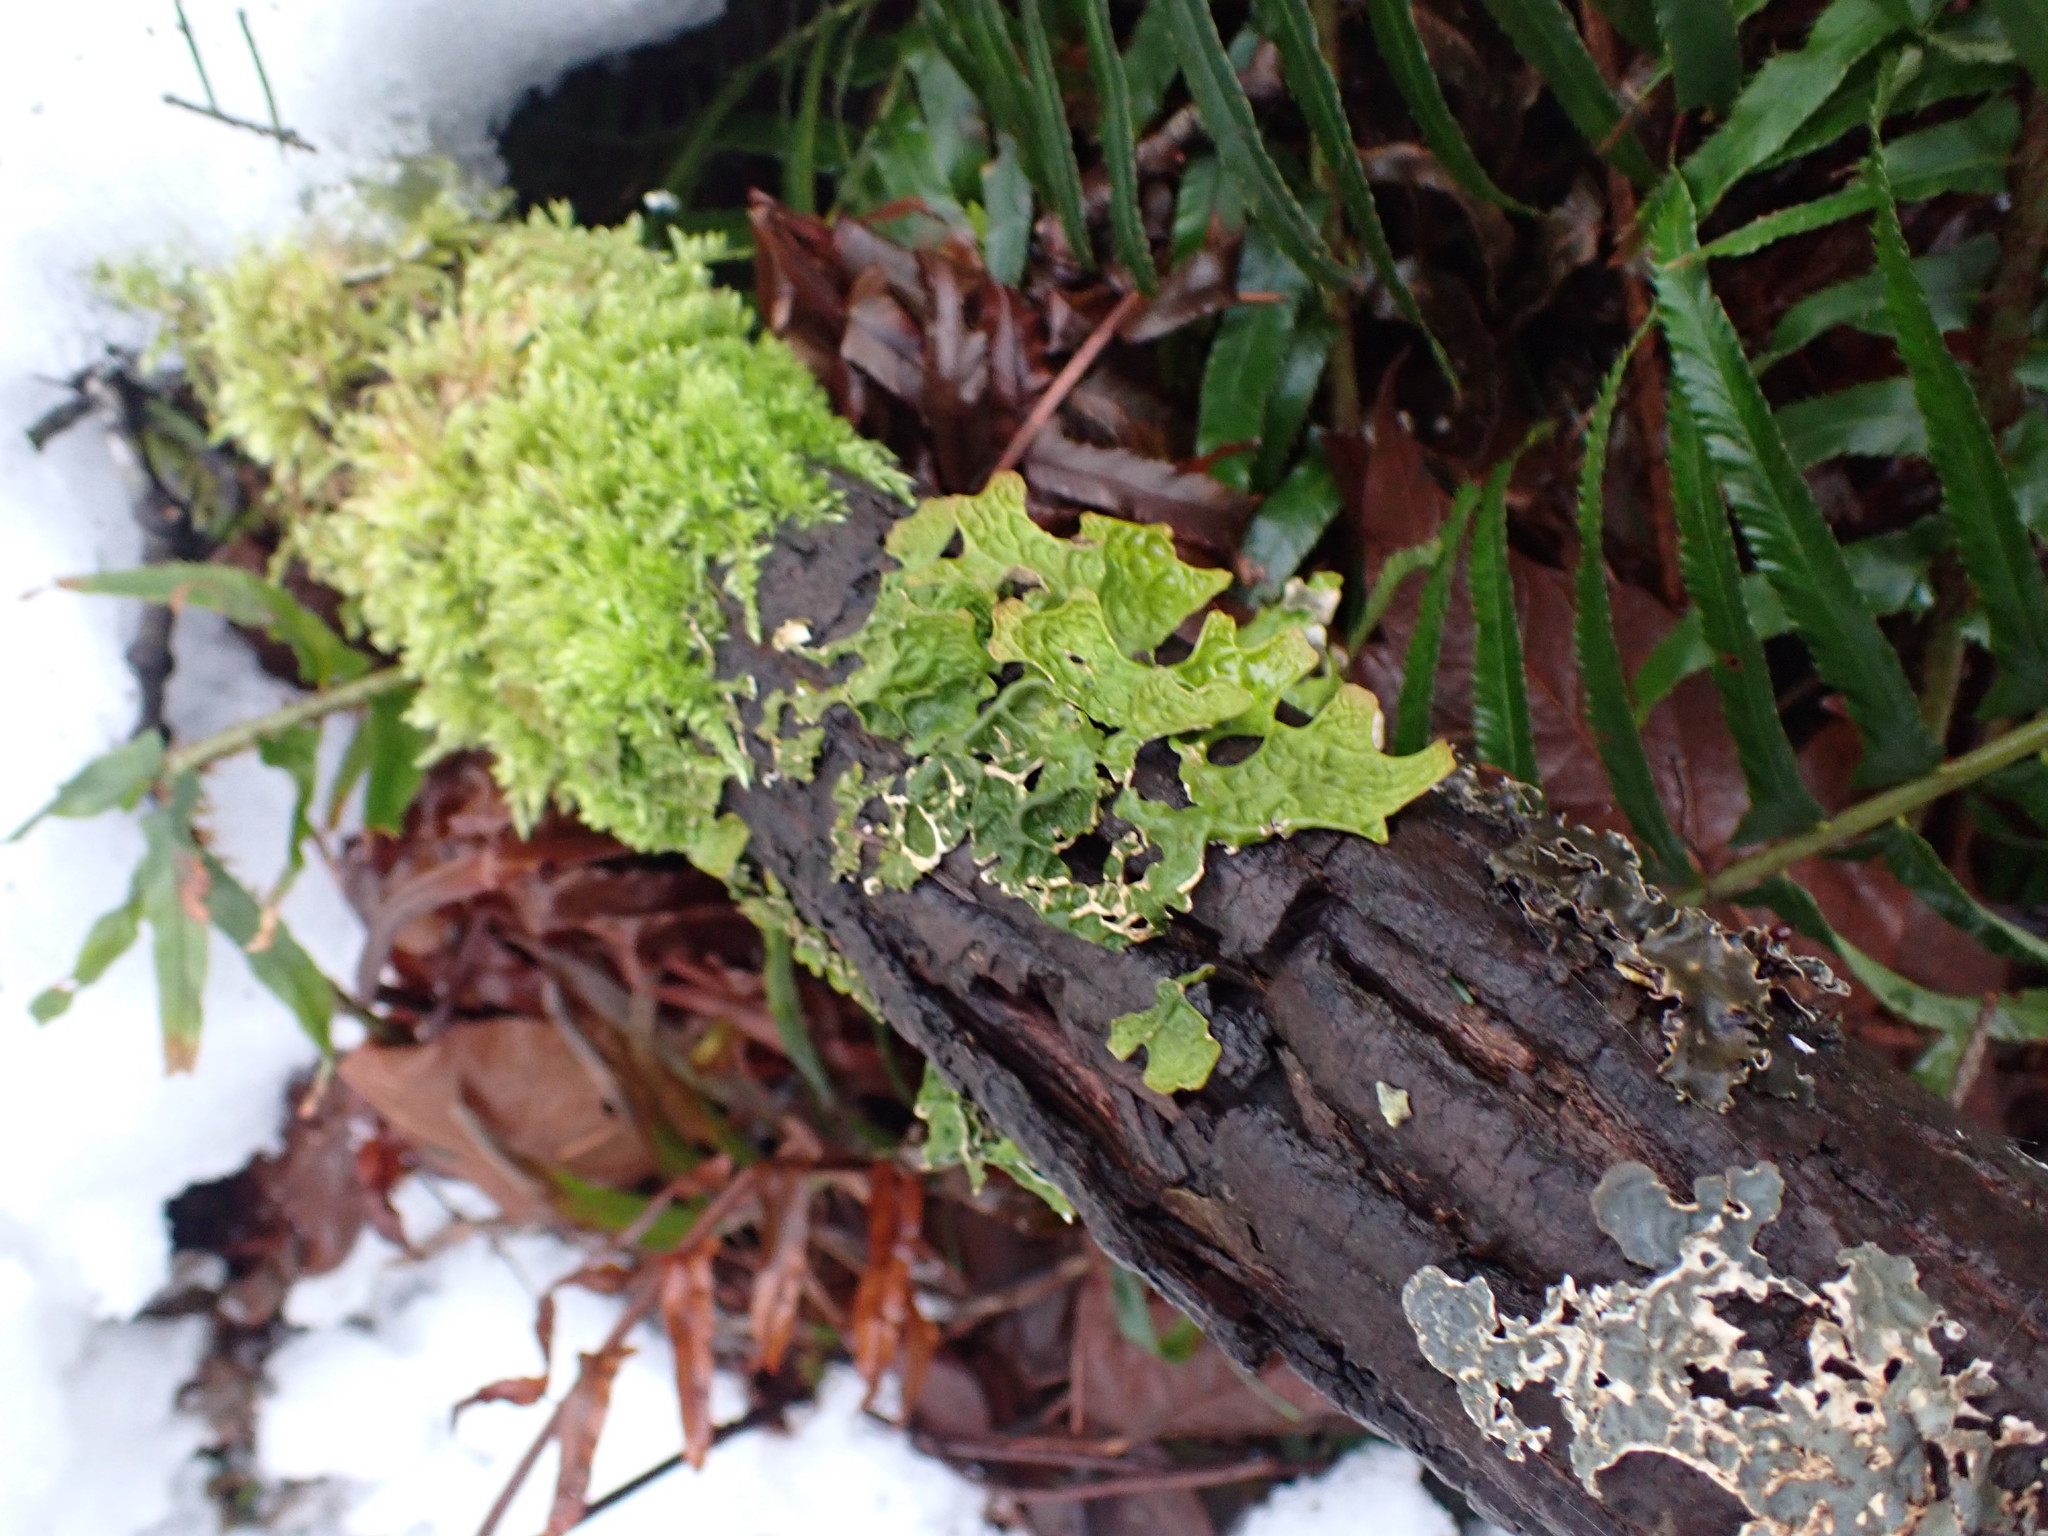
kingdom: Fungi
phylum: Ascomycota
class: Lecanoromycetes
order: Peltigerales
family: Lobariaceae
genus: Lobaria
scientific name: Lobaria pulmonaria
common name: Lungwort
